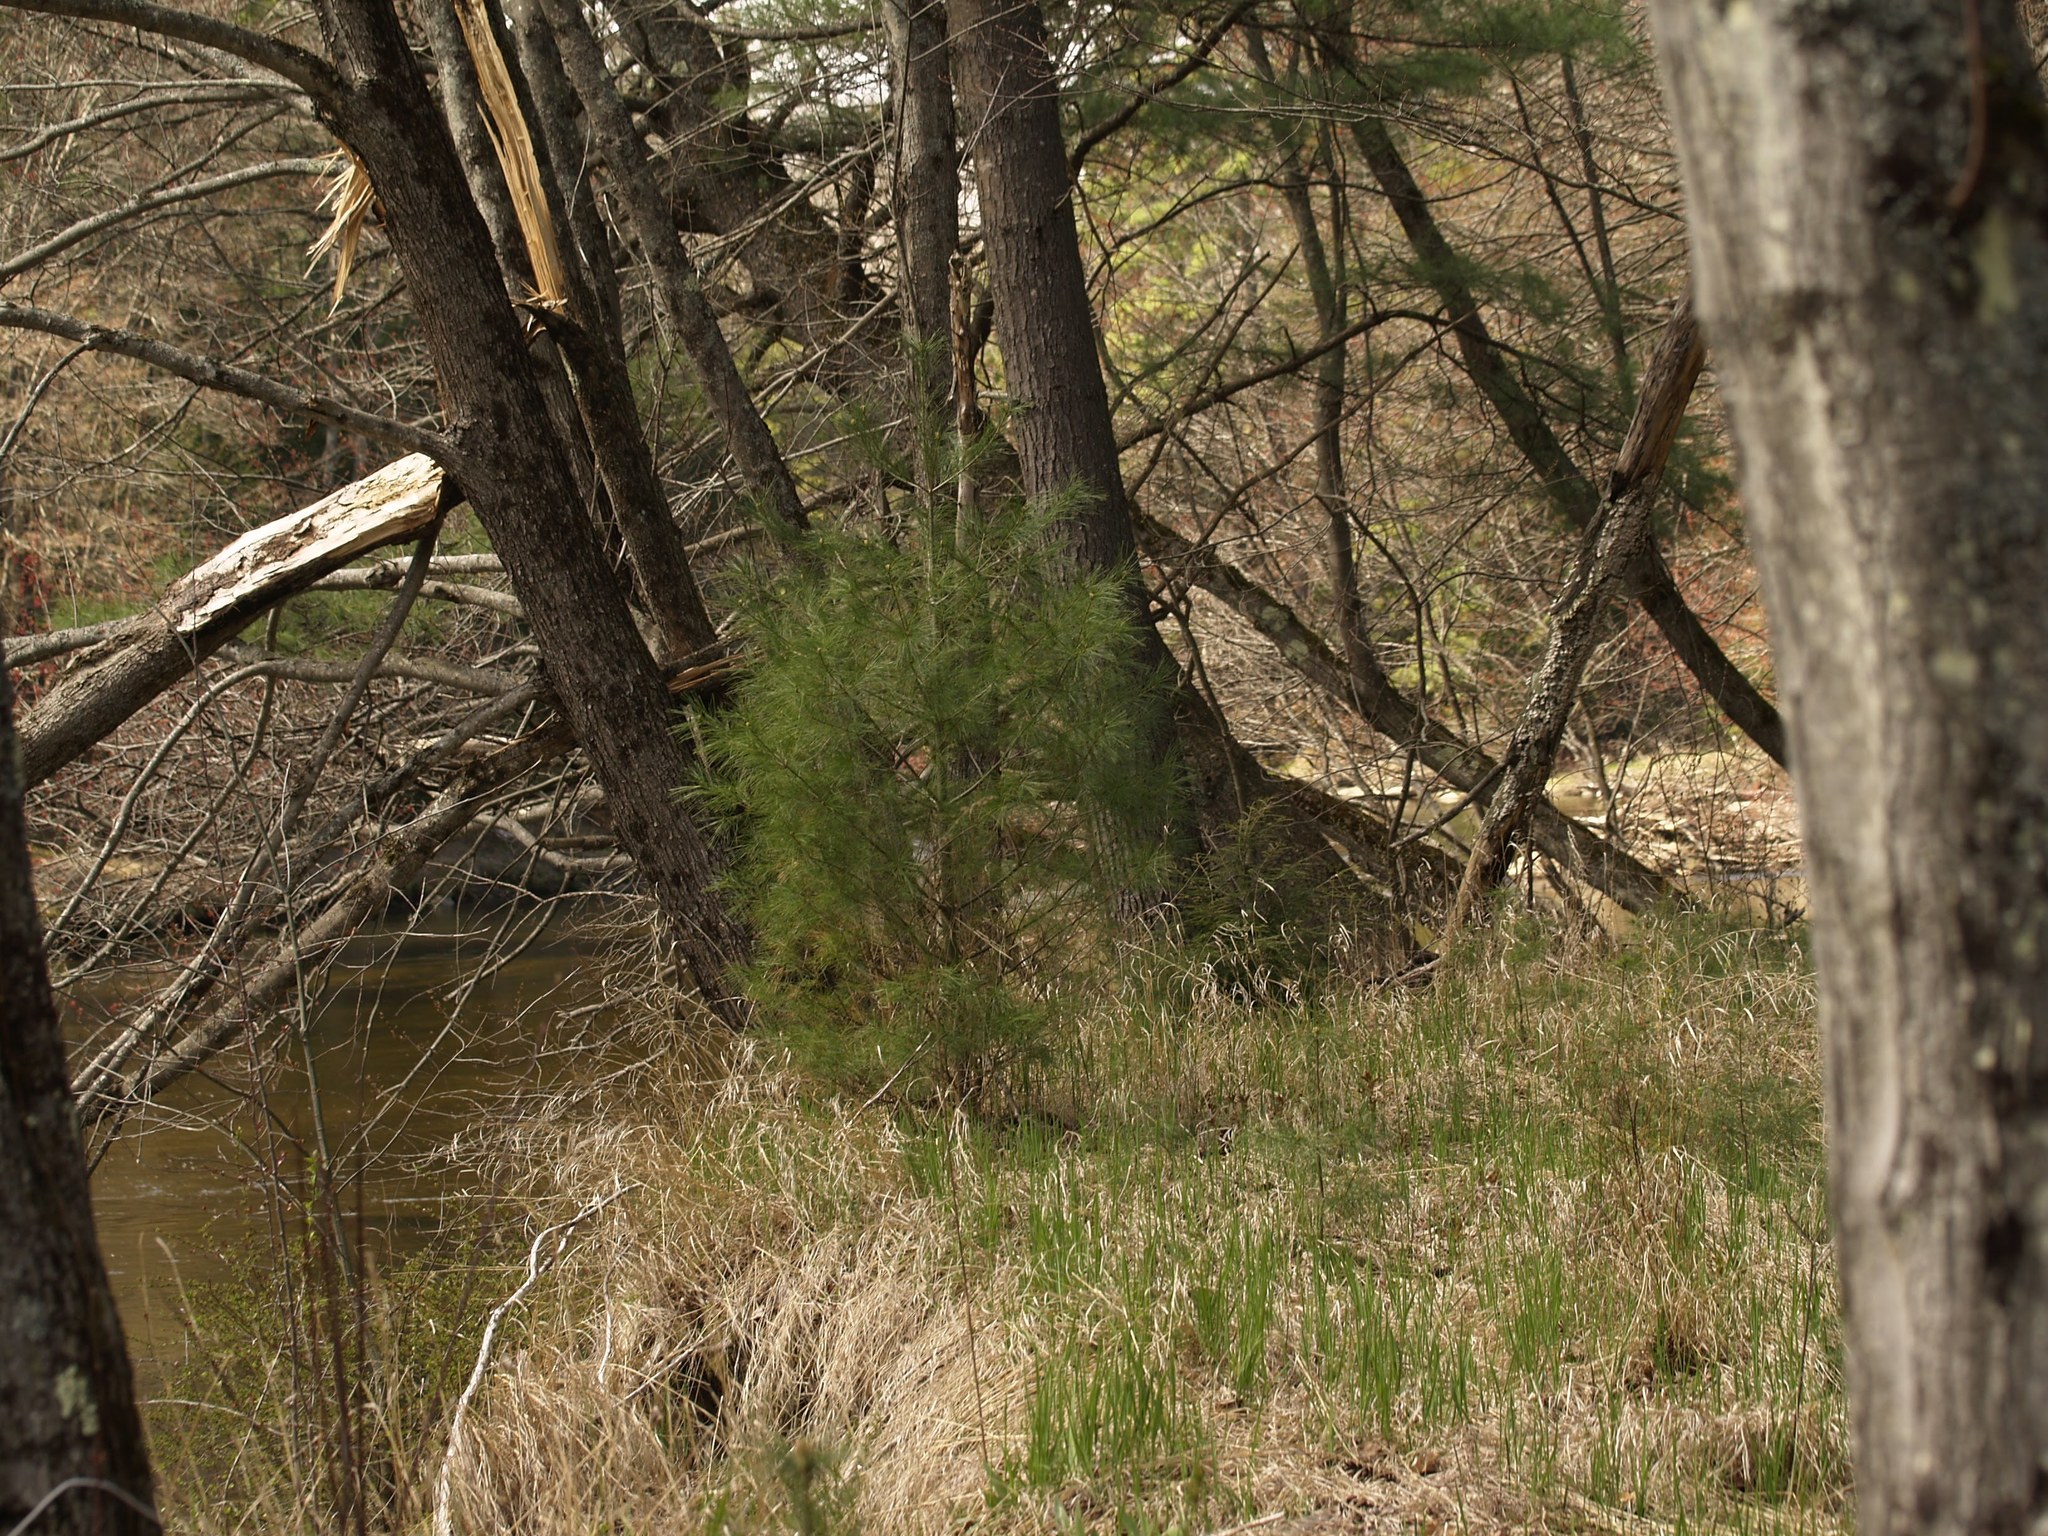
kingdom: Plantae
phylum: Tracheophyta
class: Pinopsida
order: Pinales
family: Pinaceae
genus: Pinus
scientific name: Pinus strobus
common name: Weymouth pine
